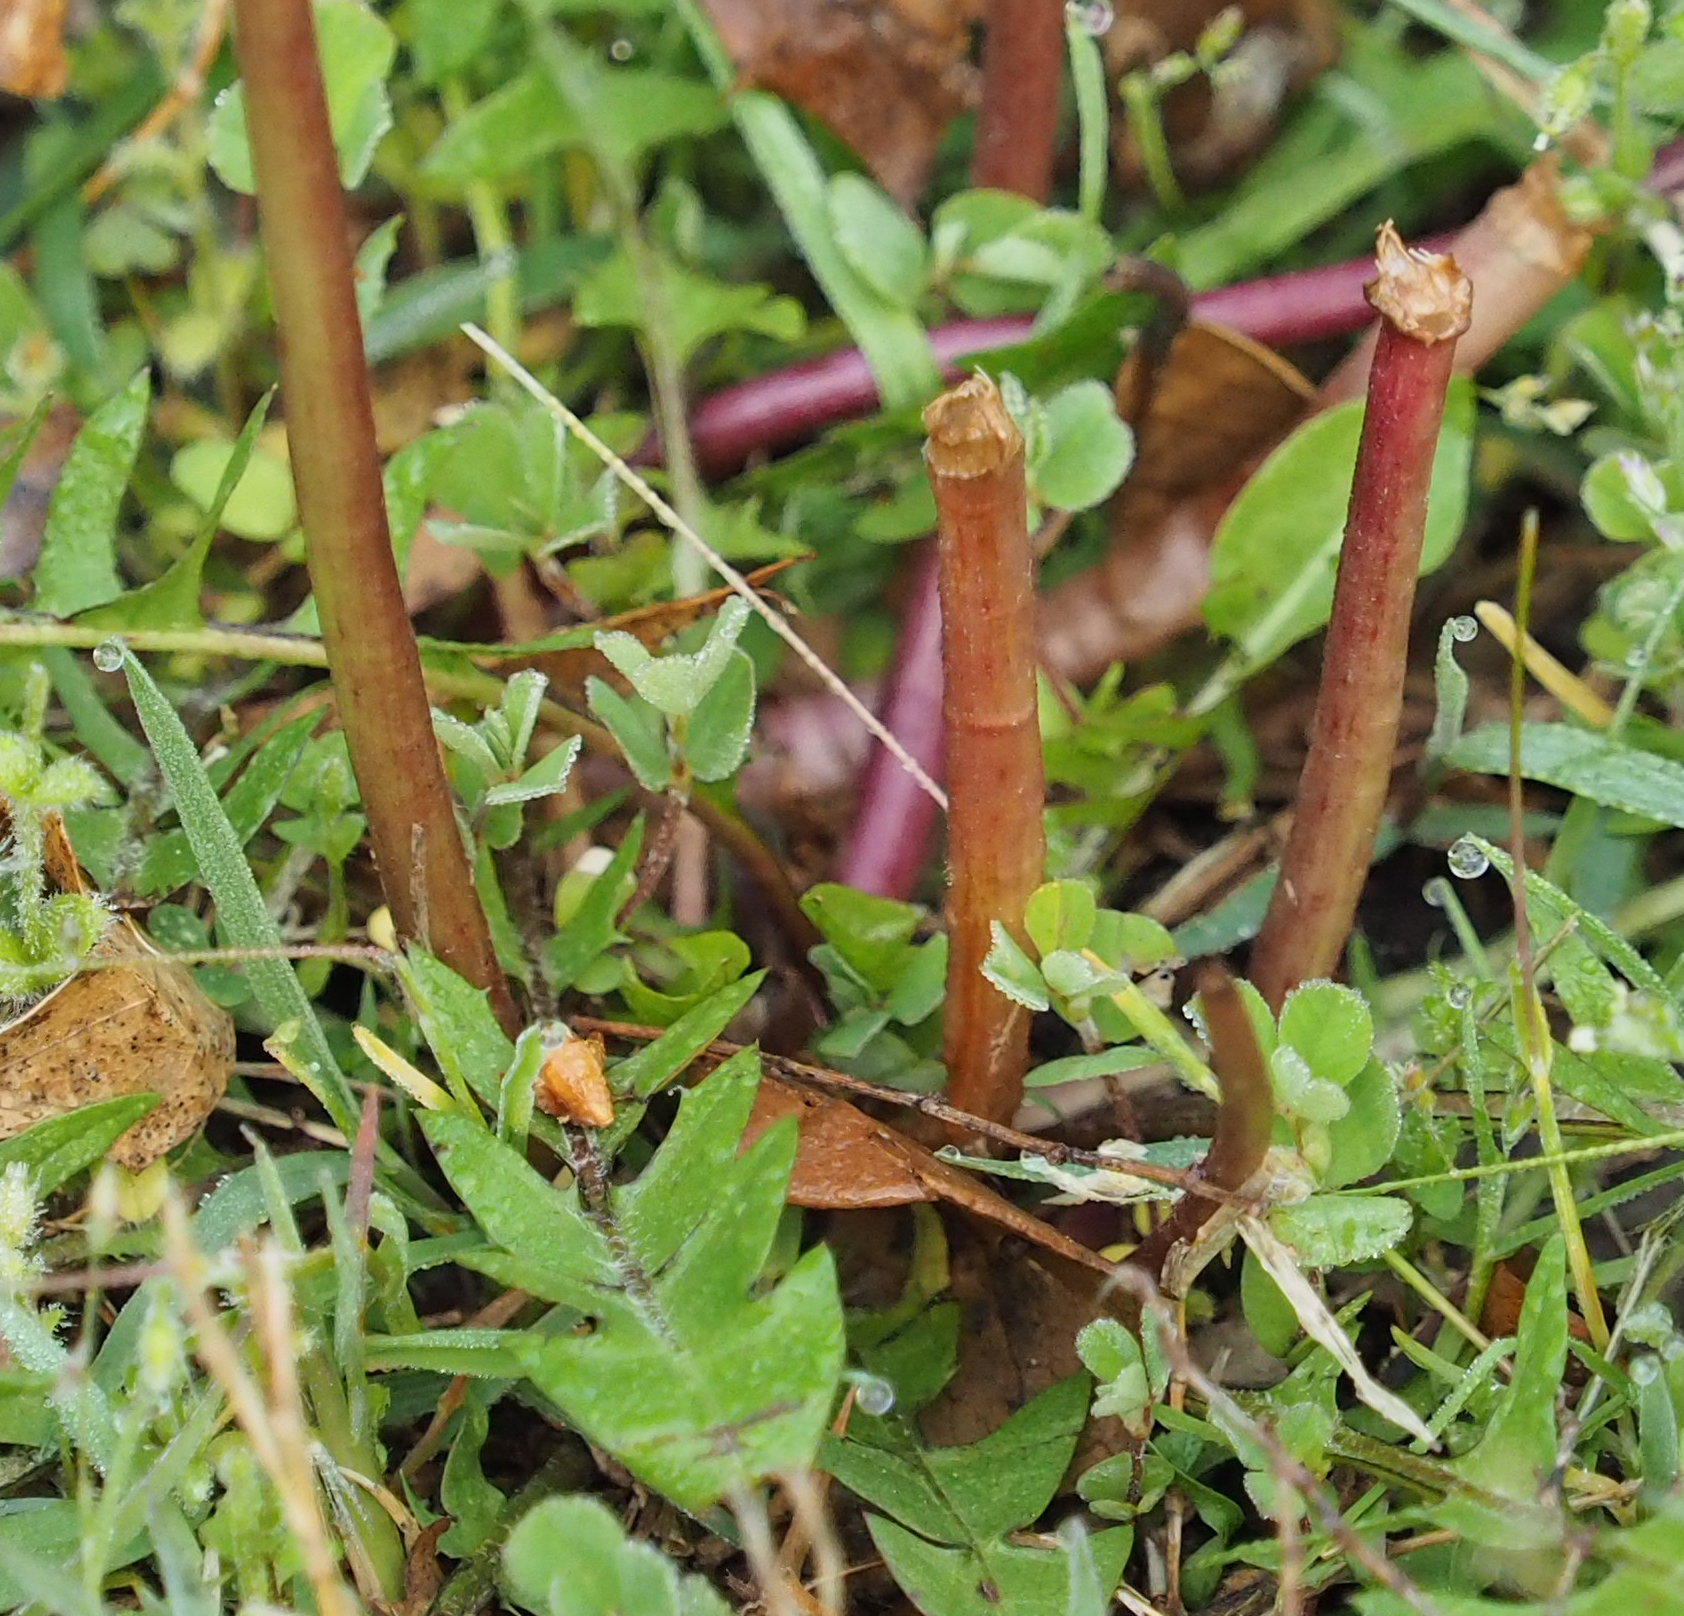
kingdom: Plantae
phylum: Tracheophyta
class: Magnoliopsida
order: Asterales
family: Asteraceae
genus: Taraxacum
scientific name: Taraxacum officinale
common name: Common dandelion
